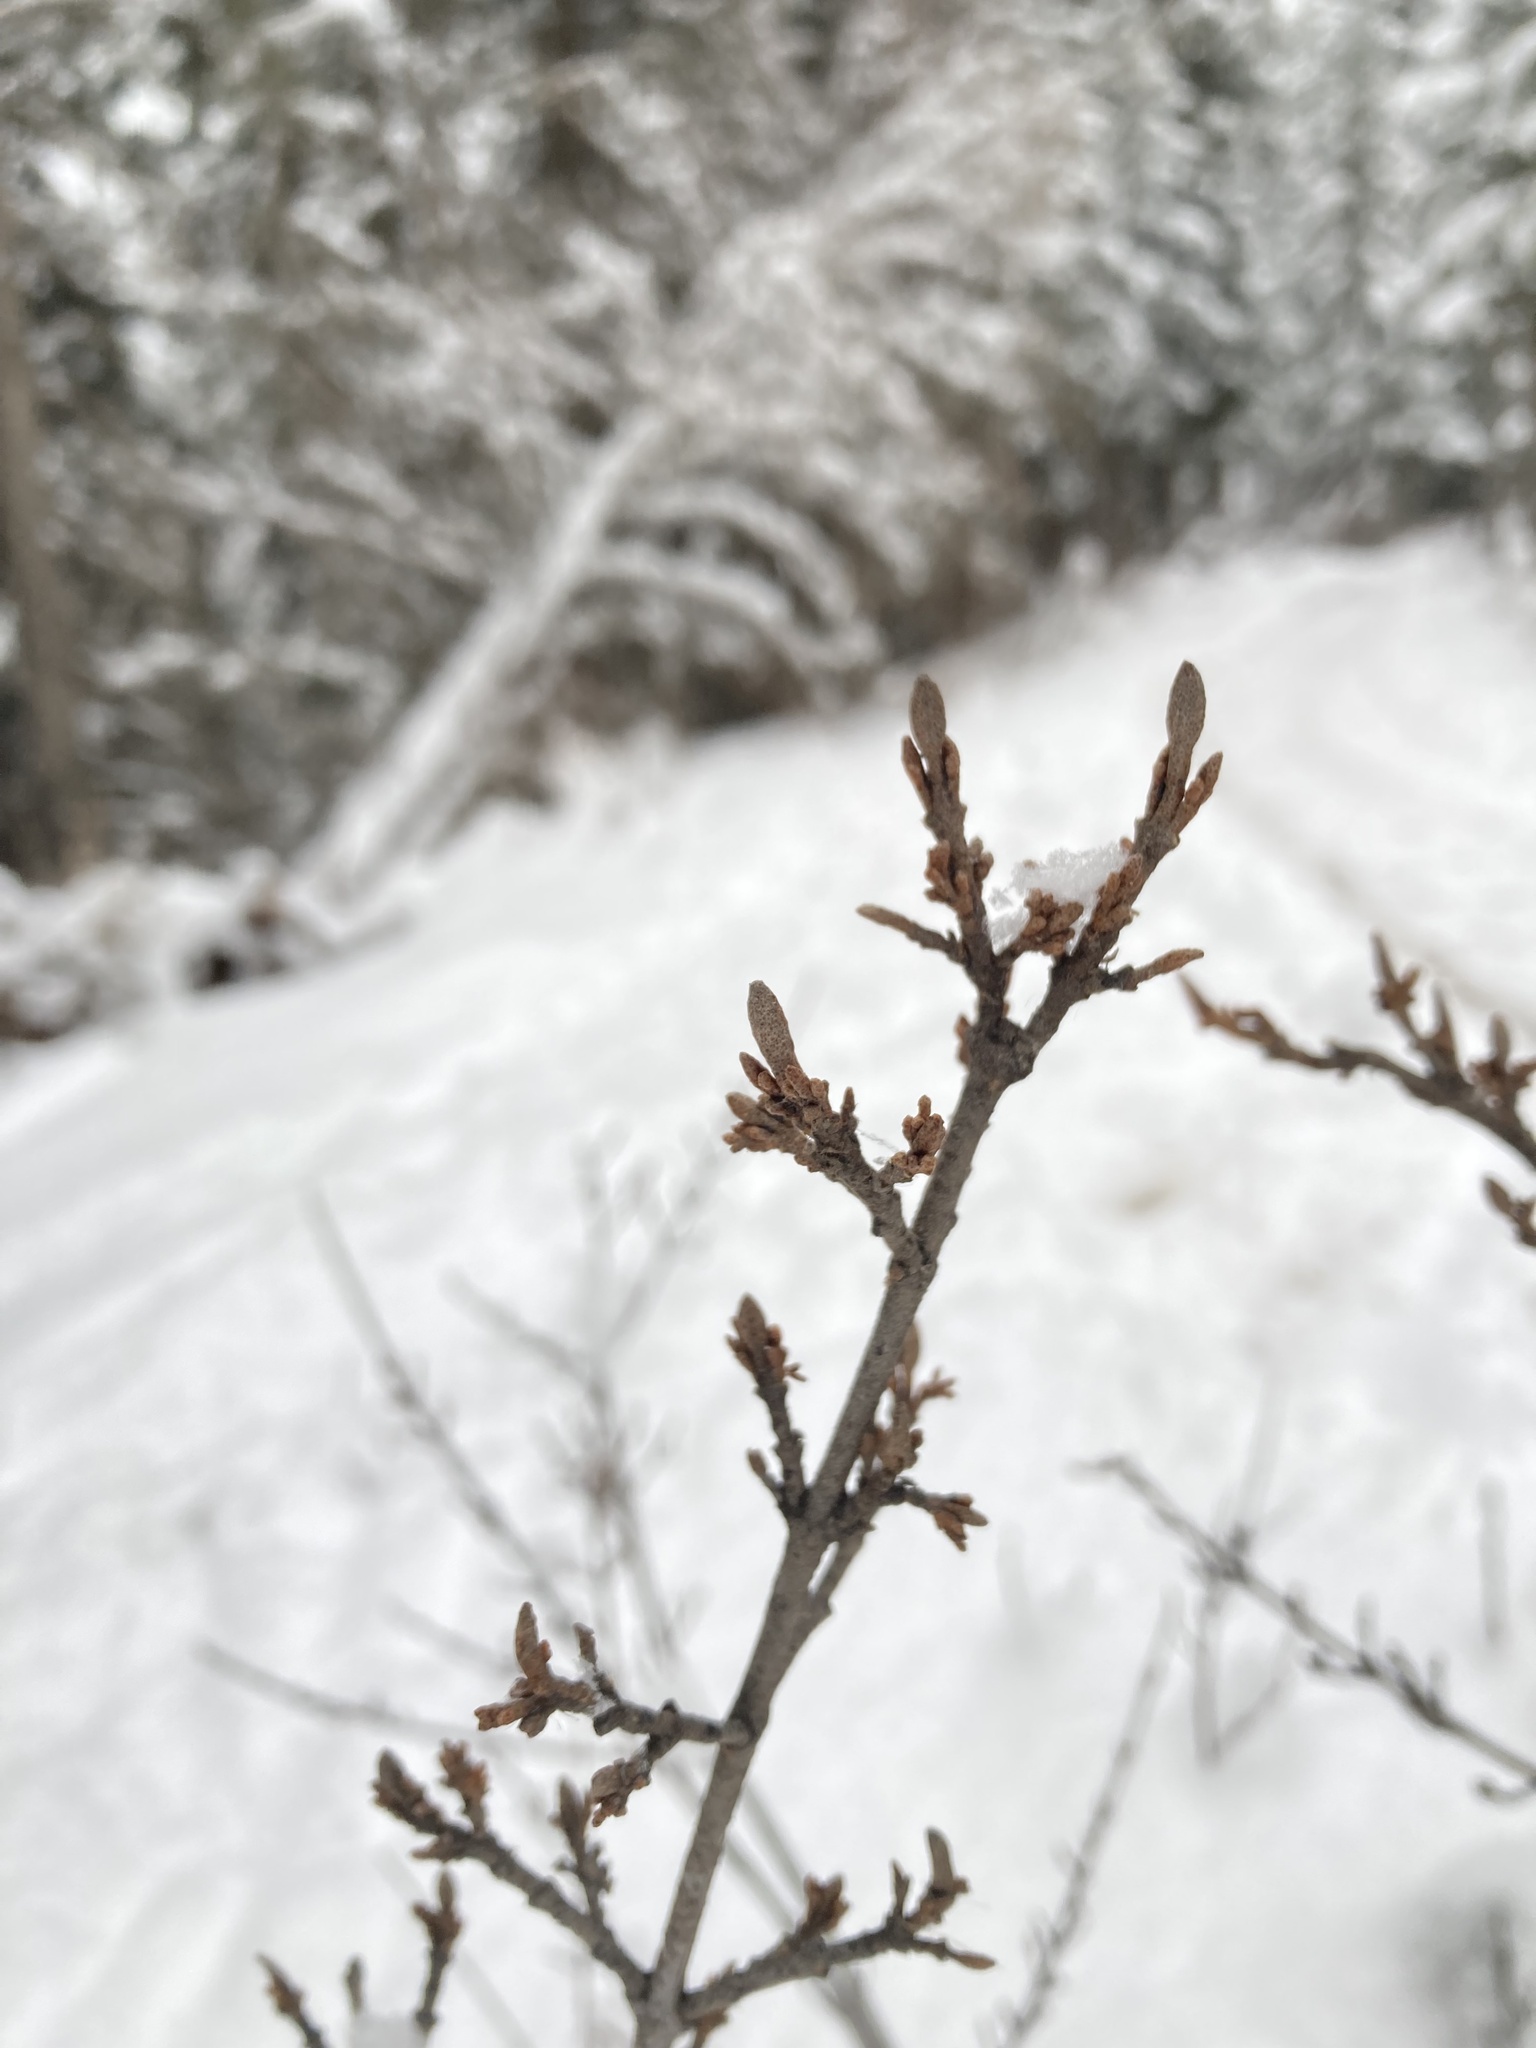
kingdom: Plantae
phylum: Tracheophyta
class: Magnoliopsida
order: Rosales
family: Elaeagnaceae
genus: Shepherdia
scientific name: Shepherdia canadensis
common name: Soapberry
